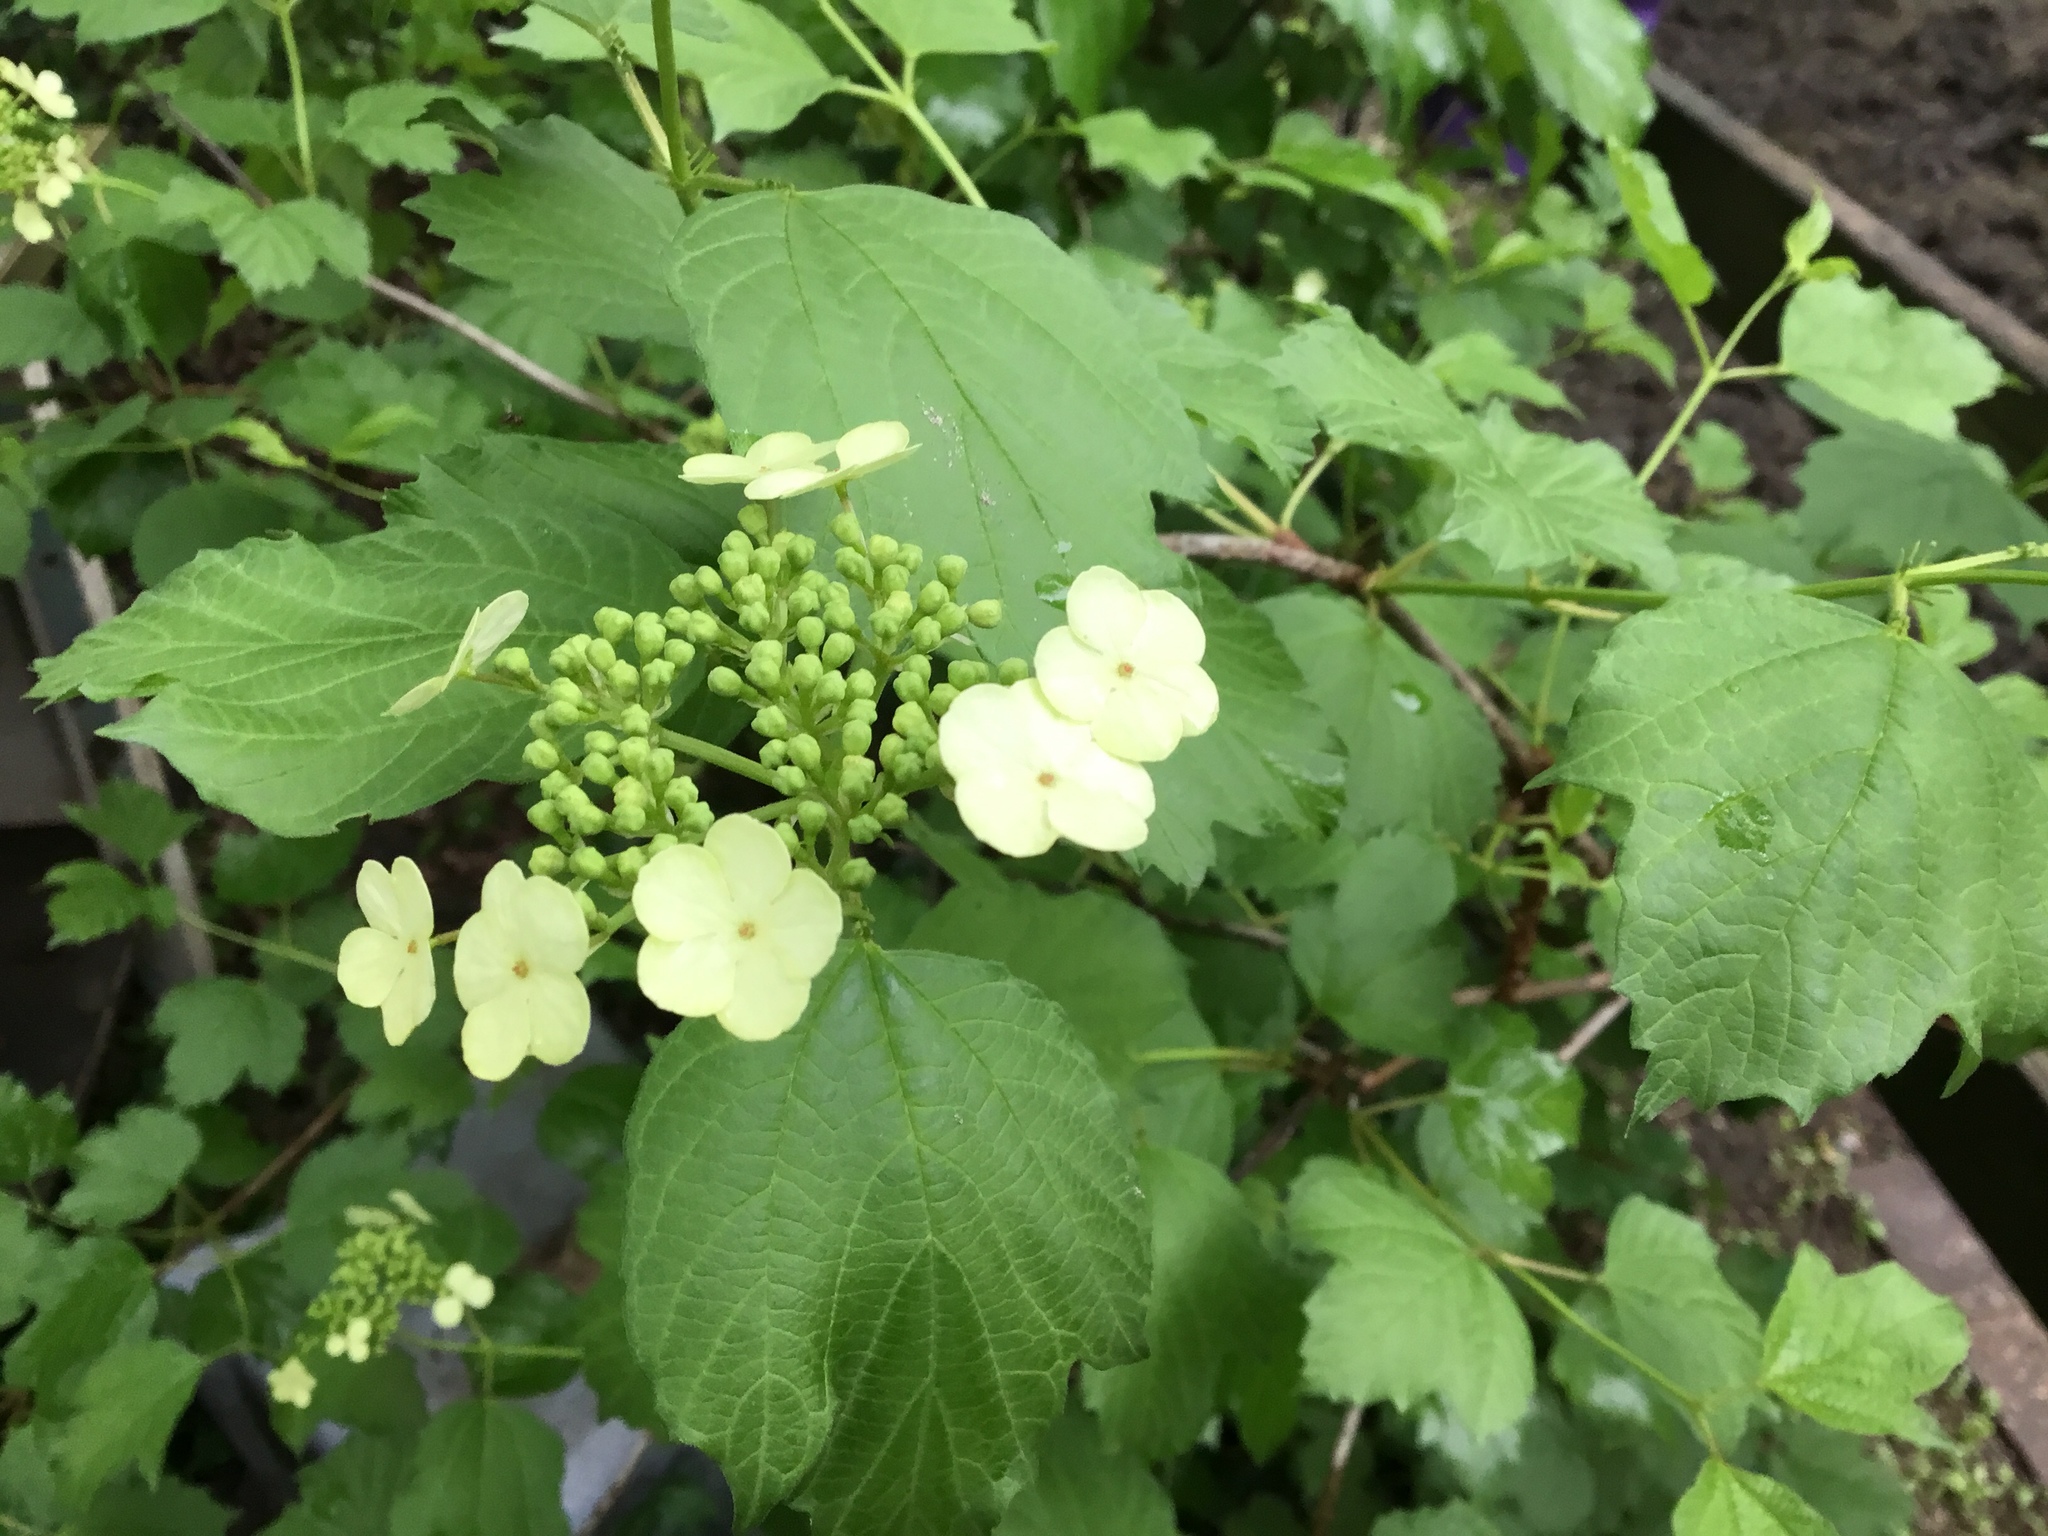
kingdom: Plantae
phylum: Tracheophyta
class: Magnoliopsida
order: Dipsacales
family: Viburnaceae
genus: Viburnum
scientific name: Viburnum opulus
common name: Guelder-rose
